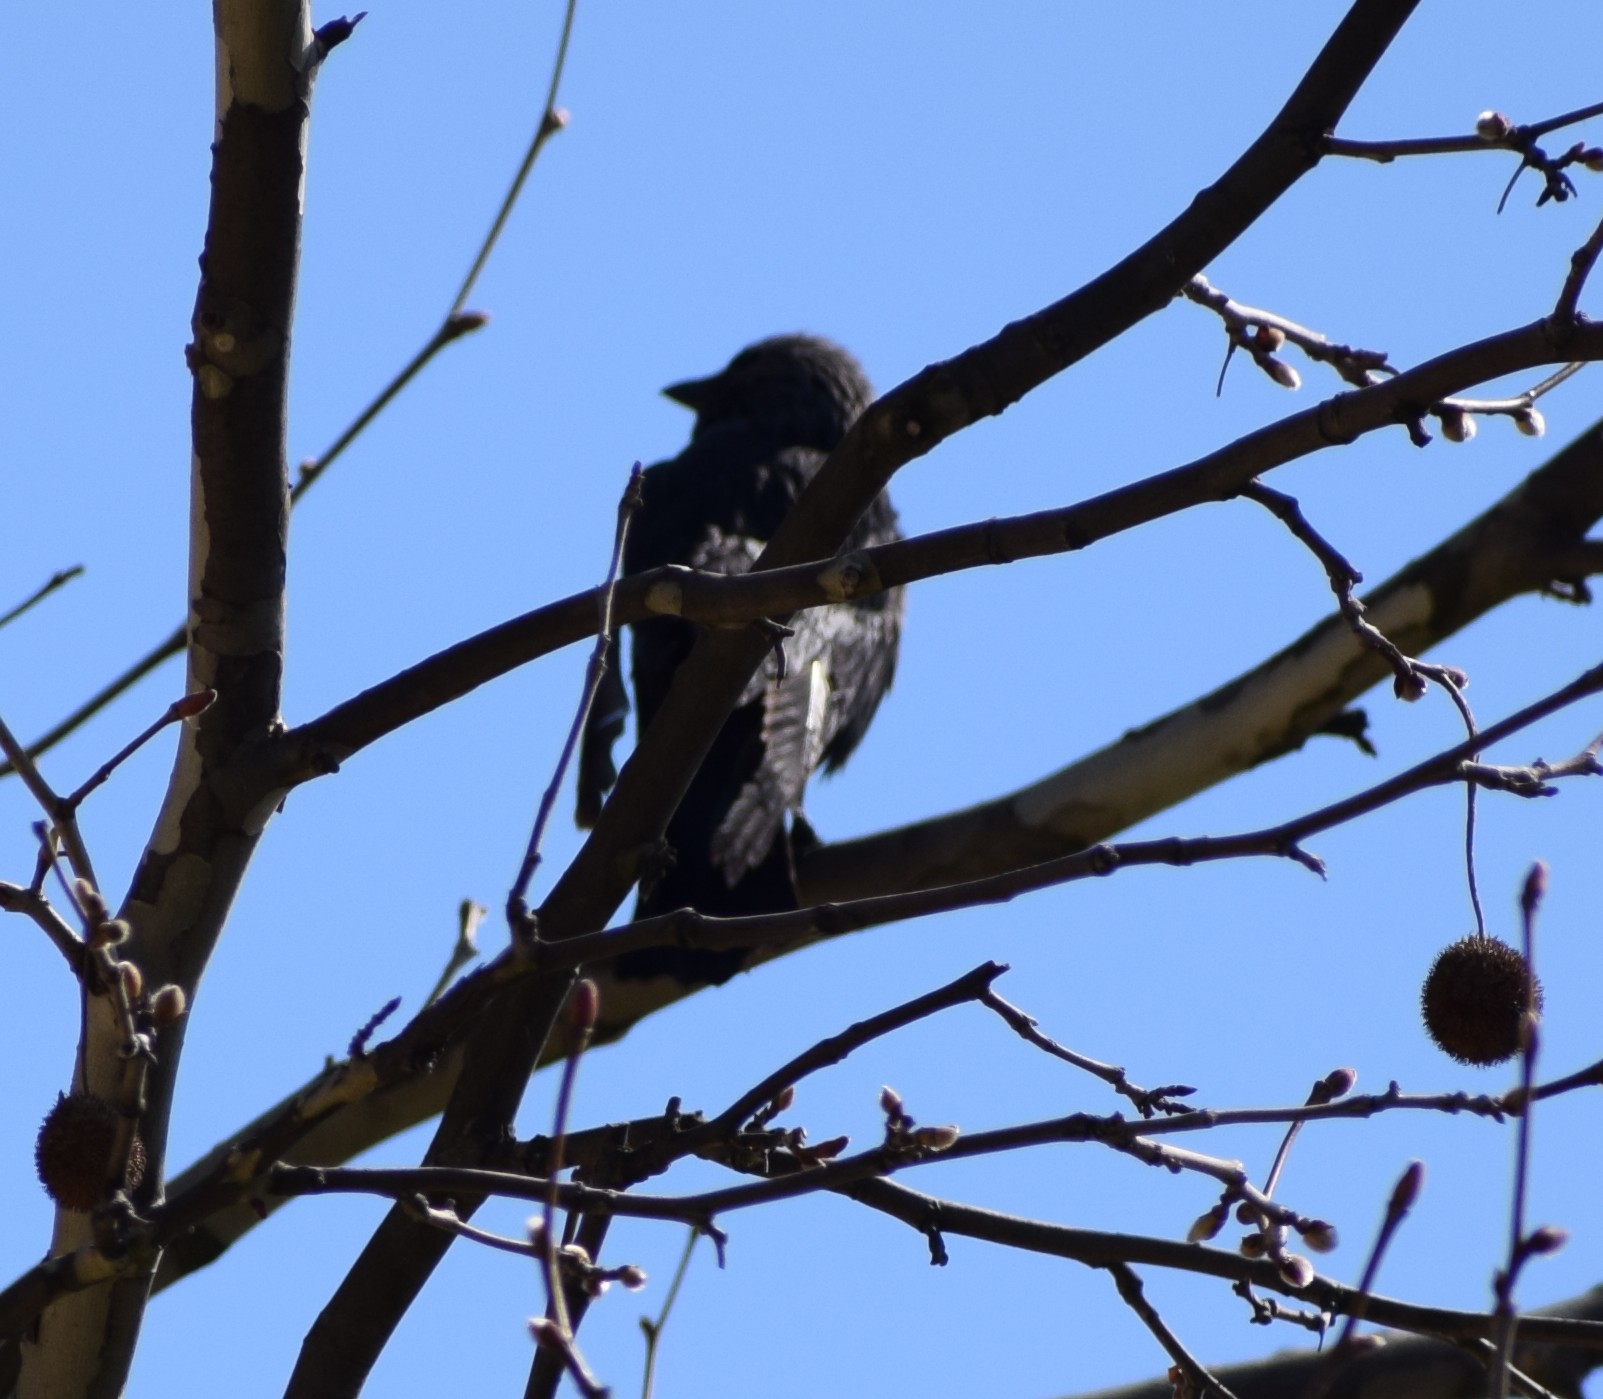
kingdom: Animalia
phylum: Chordata
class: Aves
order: Passeriformes
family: Corvidae
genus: Coloeus
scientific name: Coloeus monedula
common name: Western jackdaw
